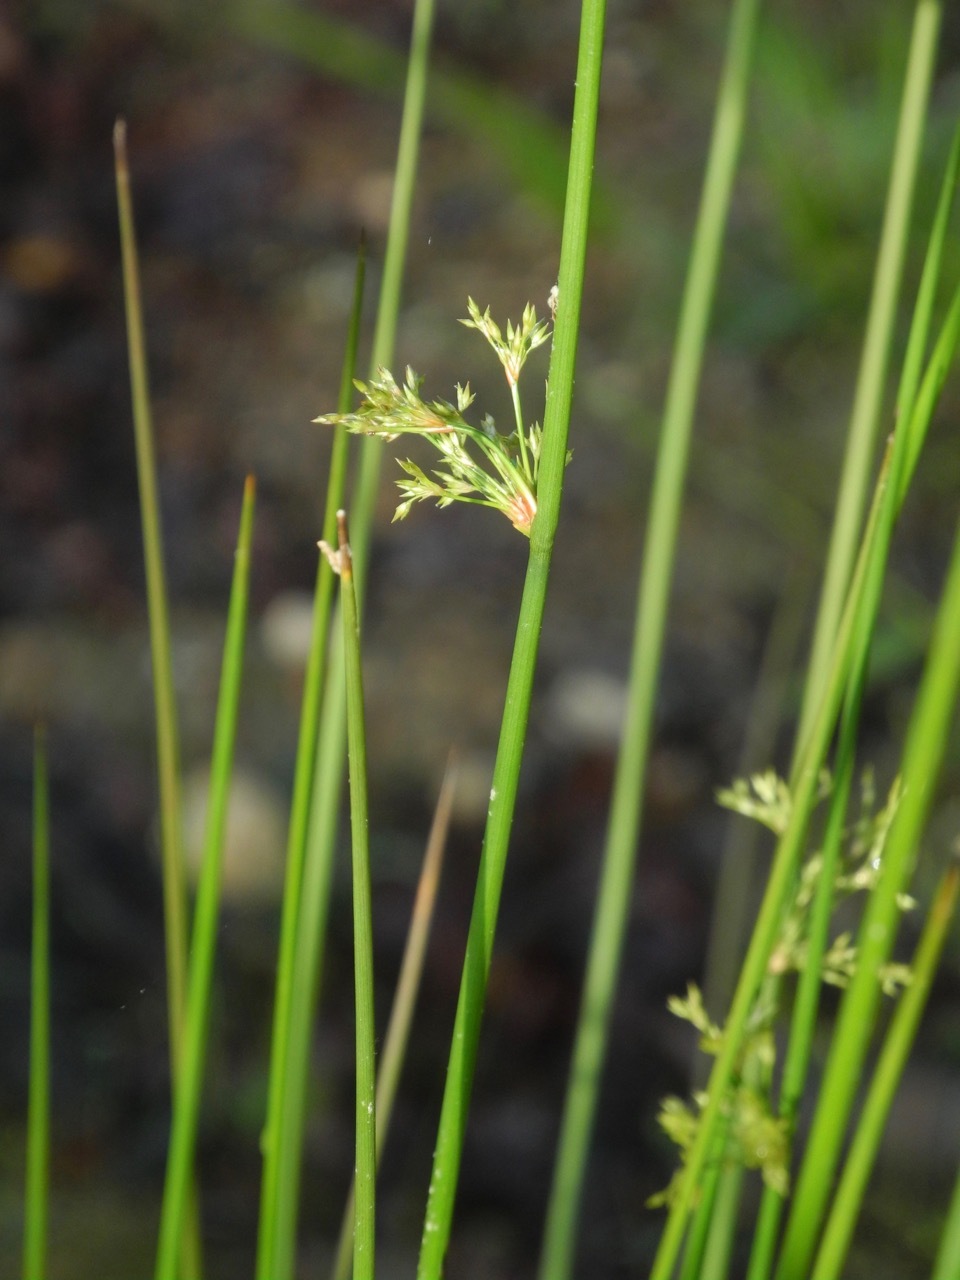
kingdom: Plantae
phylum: Tracheophyta
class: Liliopsida
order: Poales
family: Juncaceae
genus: Juncus
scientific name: Juncus effusus
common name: Soft rush
